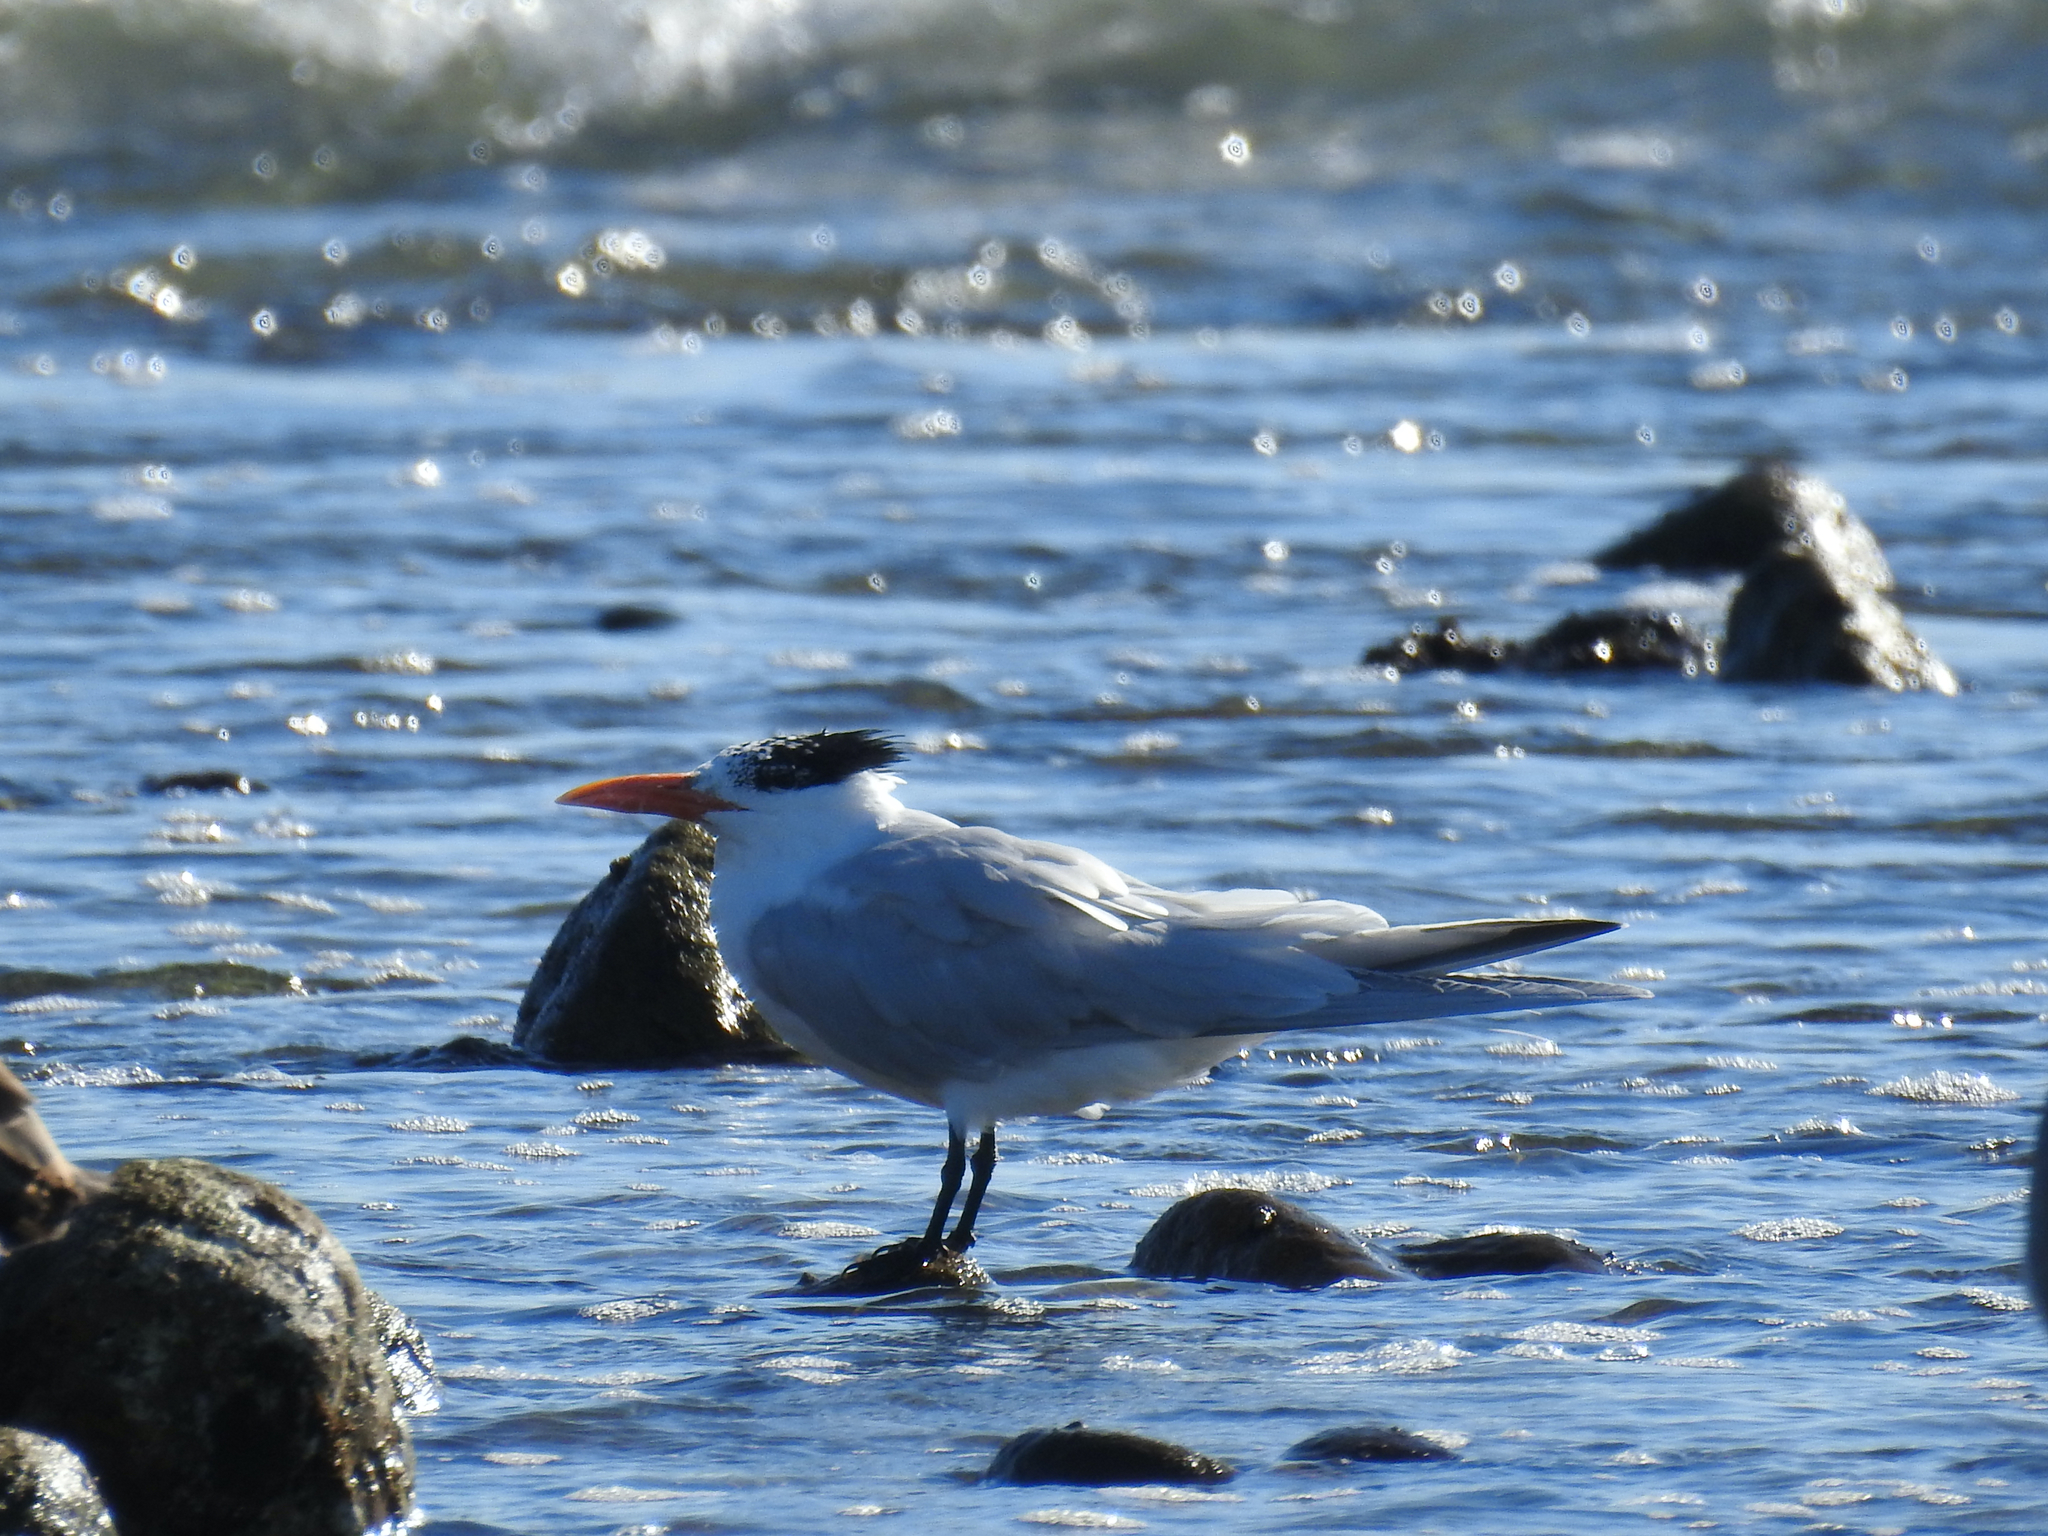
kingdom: Animalia
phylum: Chordata
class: Aves
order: Charadriiformes
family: Laridae
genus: Thalasseus
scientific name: Thalasseus maximus
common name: Royal tern
